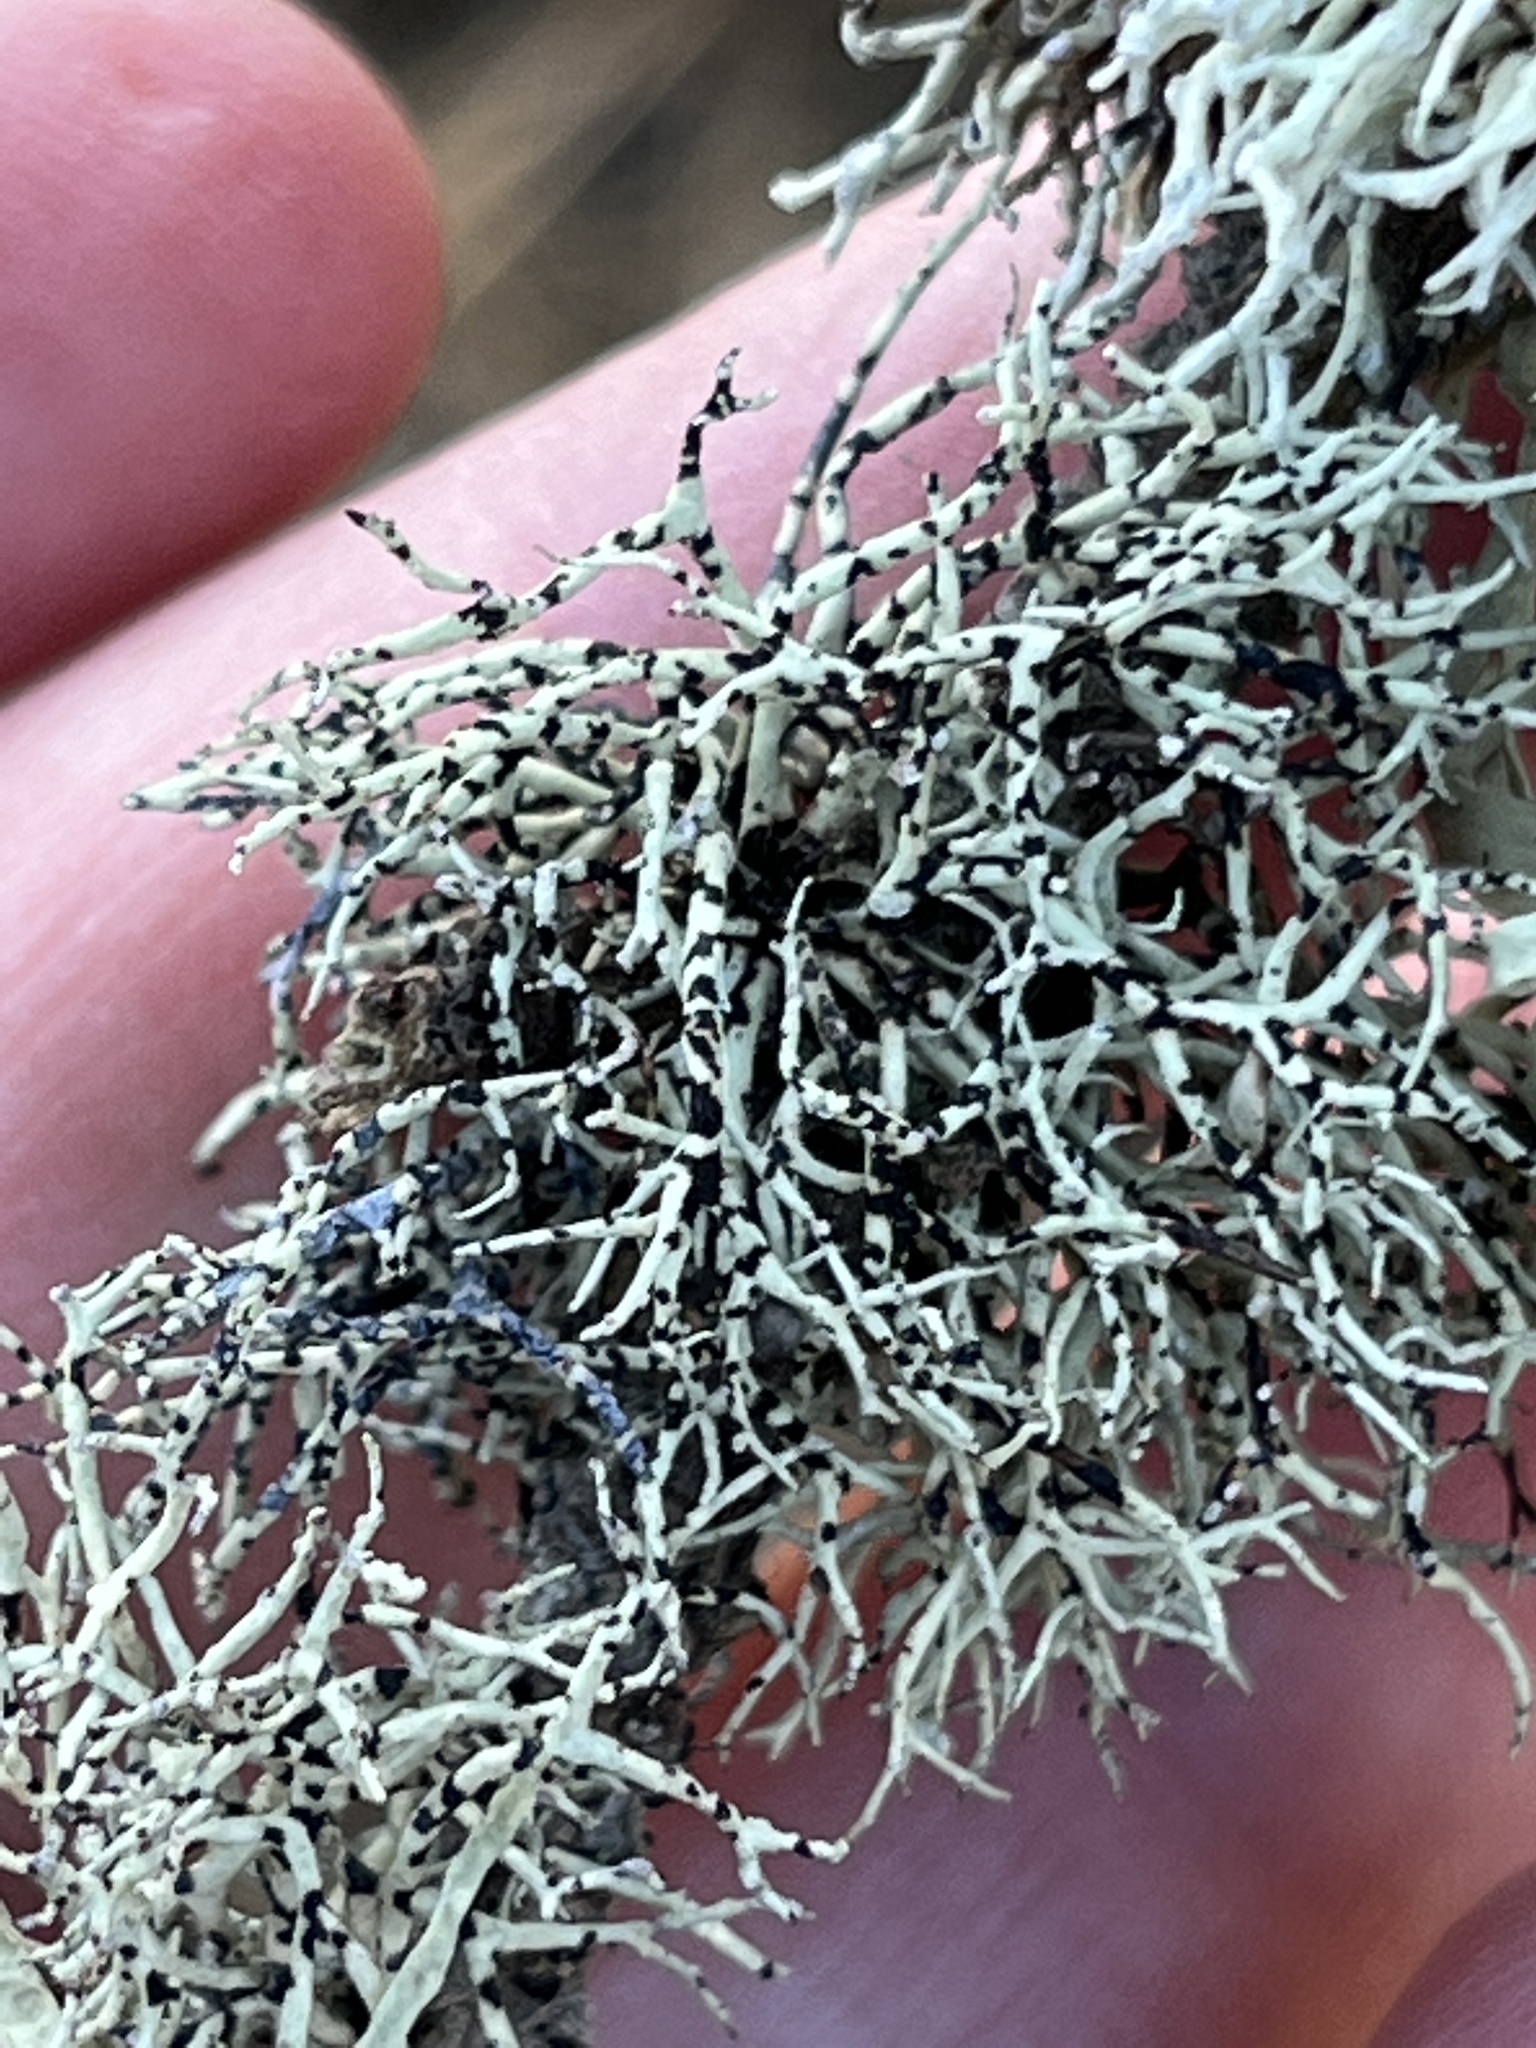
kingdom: Fungi
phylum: Ascomycota
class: Lecanoromycetes
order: Lecanorales
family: Ramalinaceae
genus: Niebla
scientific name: Niebla cephalota
